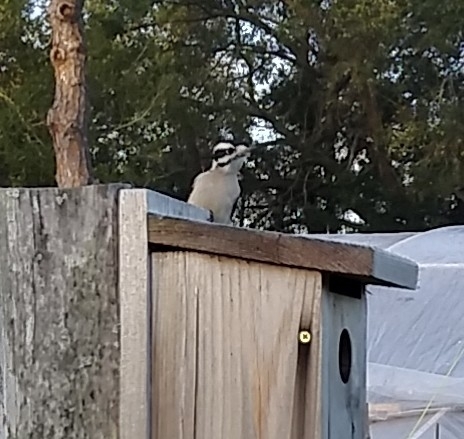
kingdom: Animalia
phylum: Chordata
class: Aves
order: Piciformes
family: Picidae
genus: Dryobates
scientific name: Dryobates pubescens
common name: Downy woodpecker
